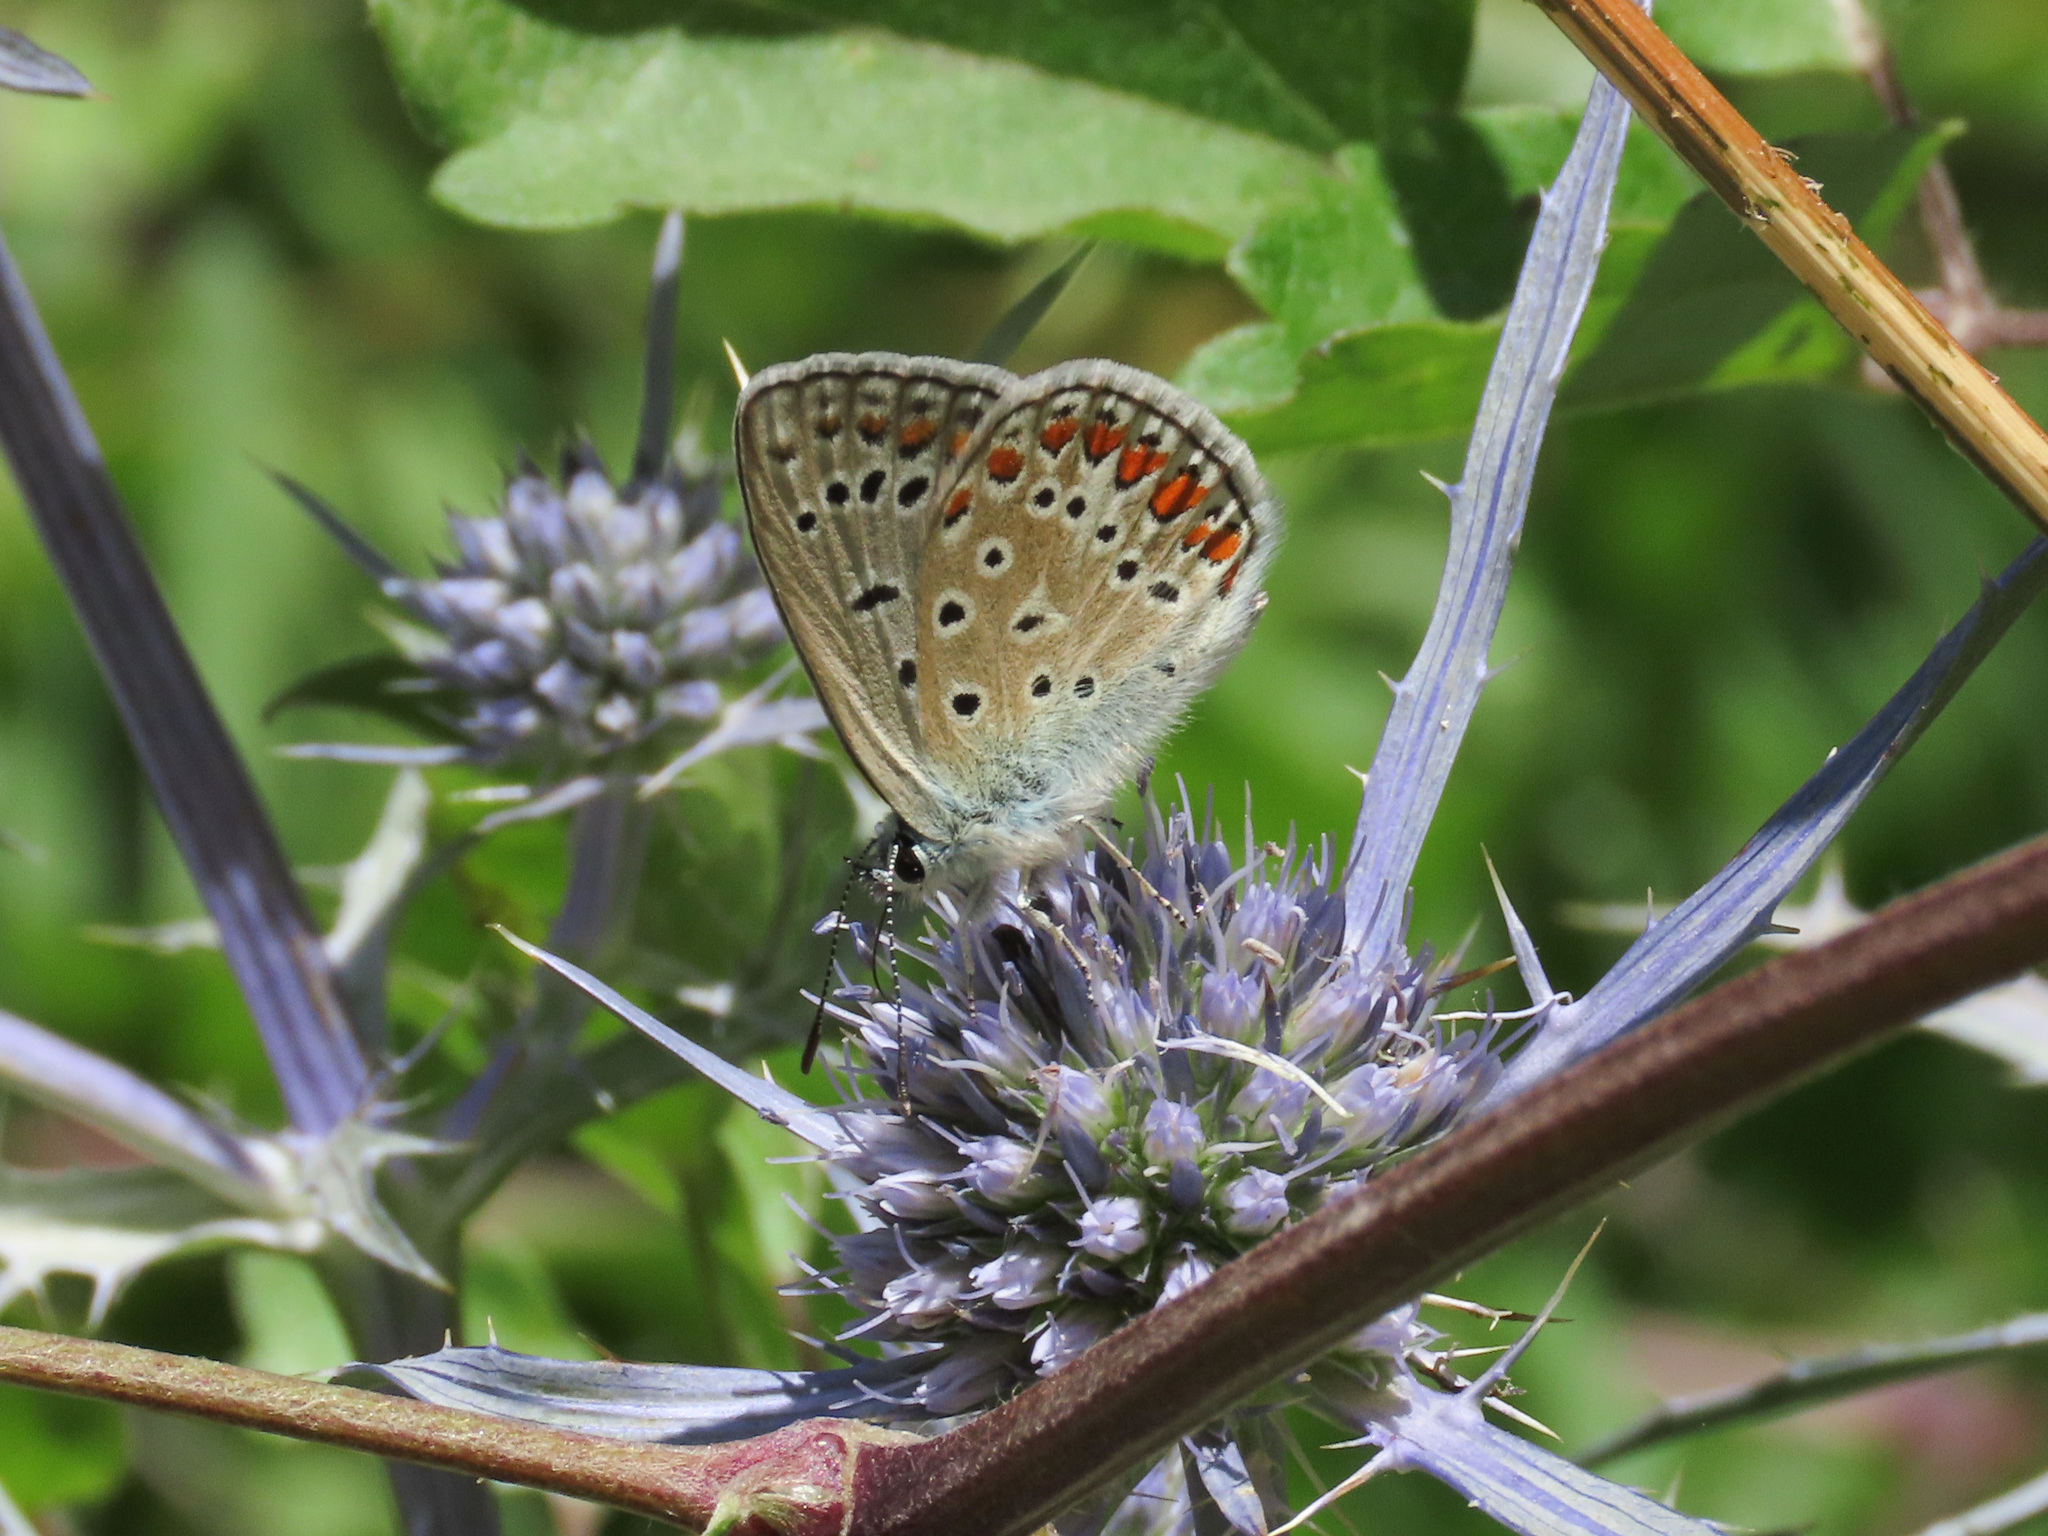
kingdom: Animalia
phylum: Arthropoda
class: Insecta
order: Lepidoptera
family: Lycaenidae
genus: Polyommatus
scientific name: Polyommatus icarus
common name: Common blue
